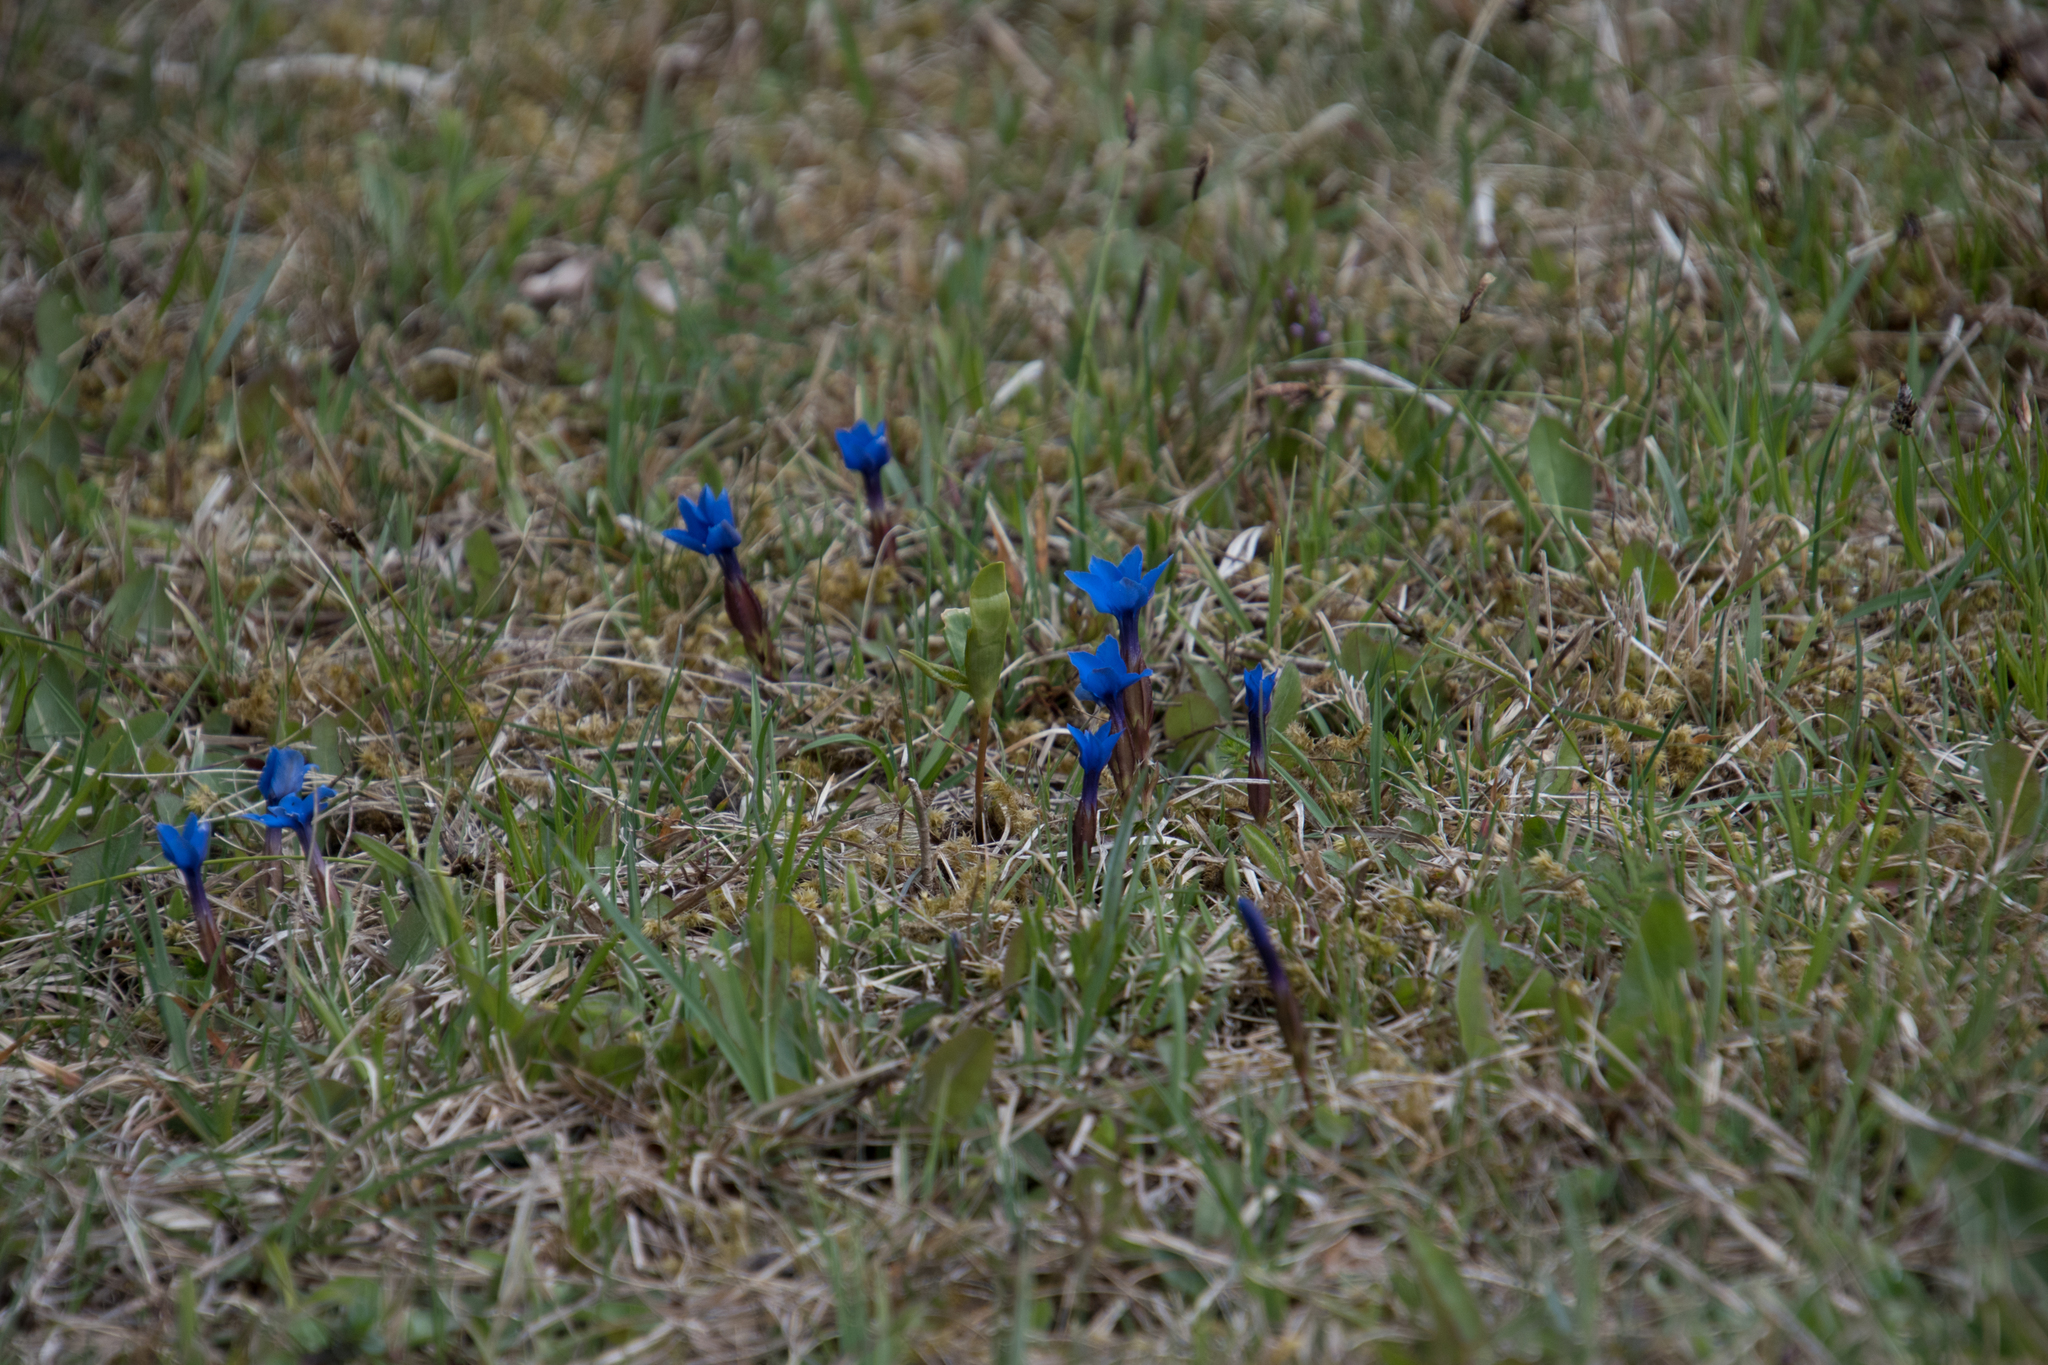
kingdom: Plantae
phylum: Tracheophyta
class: Magnoliopsida
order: Gentianales
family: Gentianaceae
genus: Gentiana
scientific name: Gentiana verna
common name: Spring gentian
